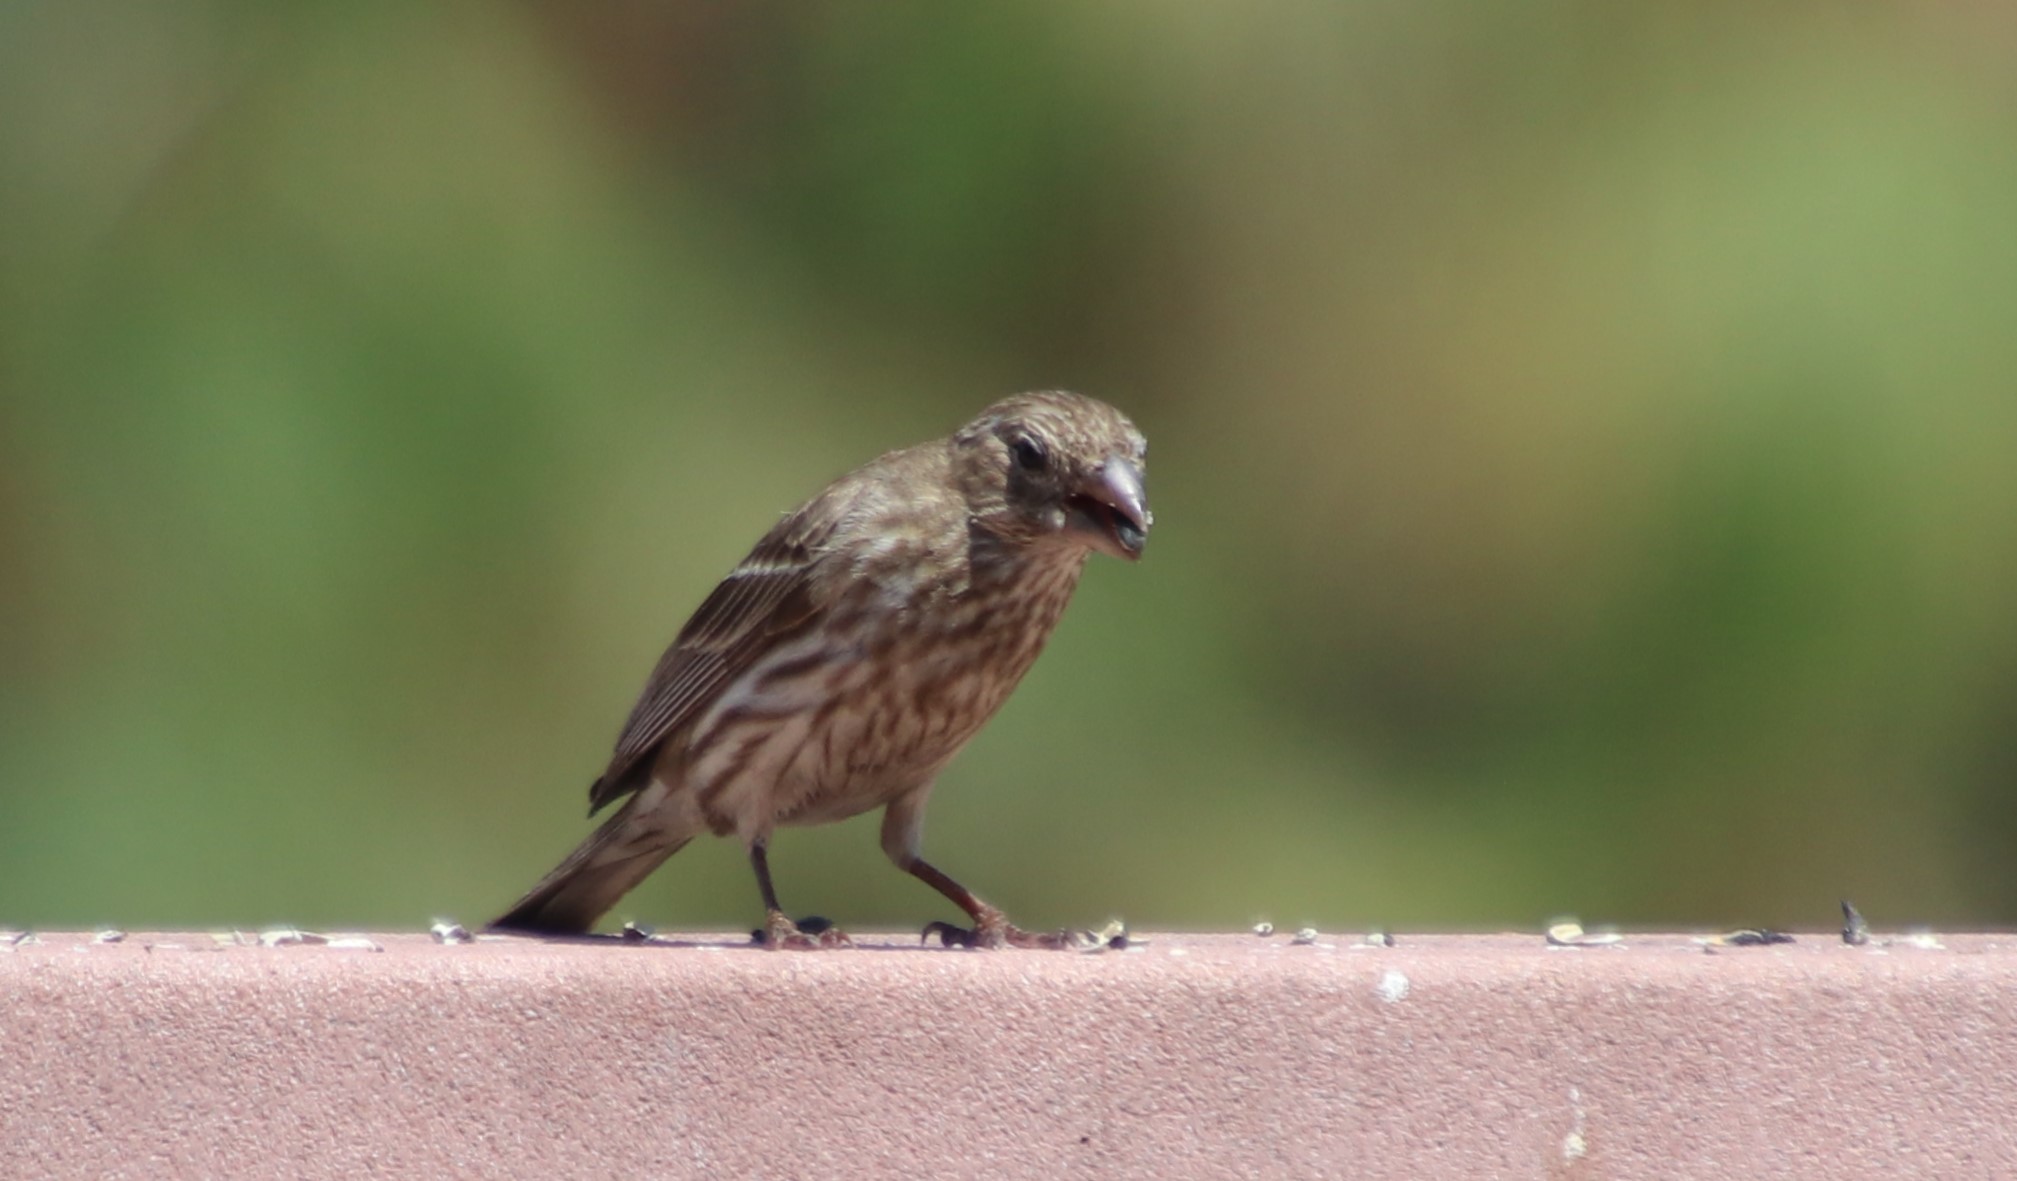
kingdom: Animalia
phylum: Chordata
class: Aves
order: Passeriformes
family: Fringillidae
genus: Haemorhous
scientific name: Haemorhous mexicanus
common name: House finch
